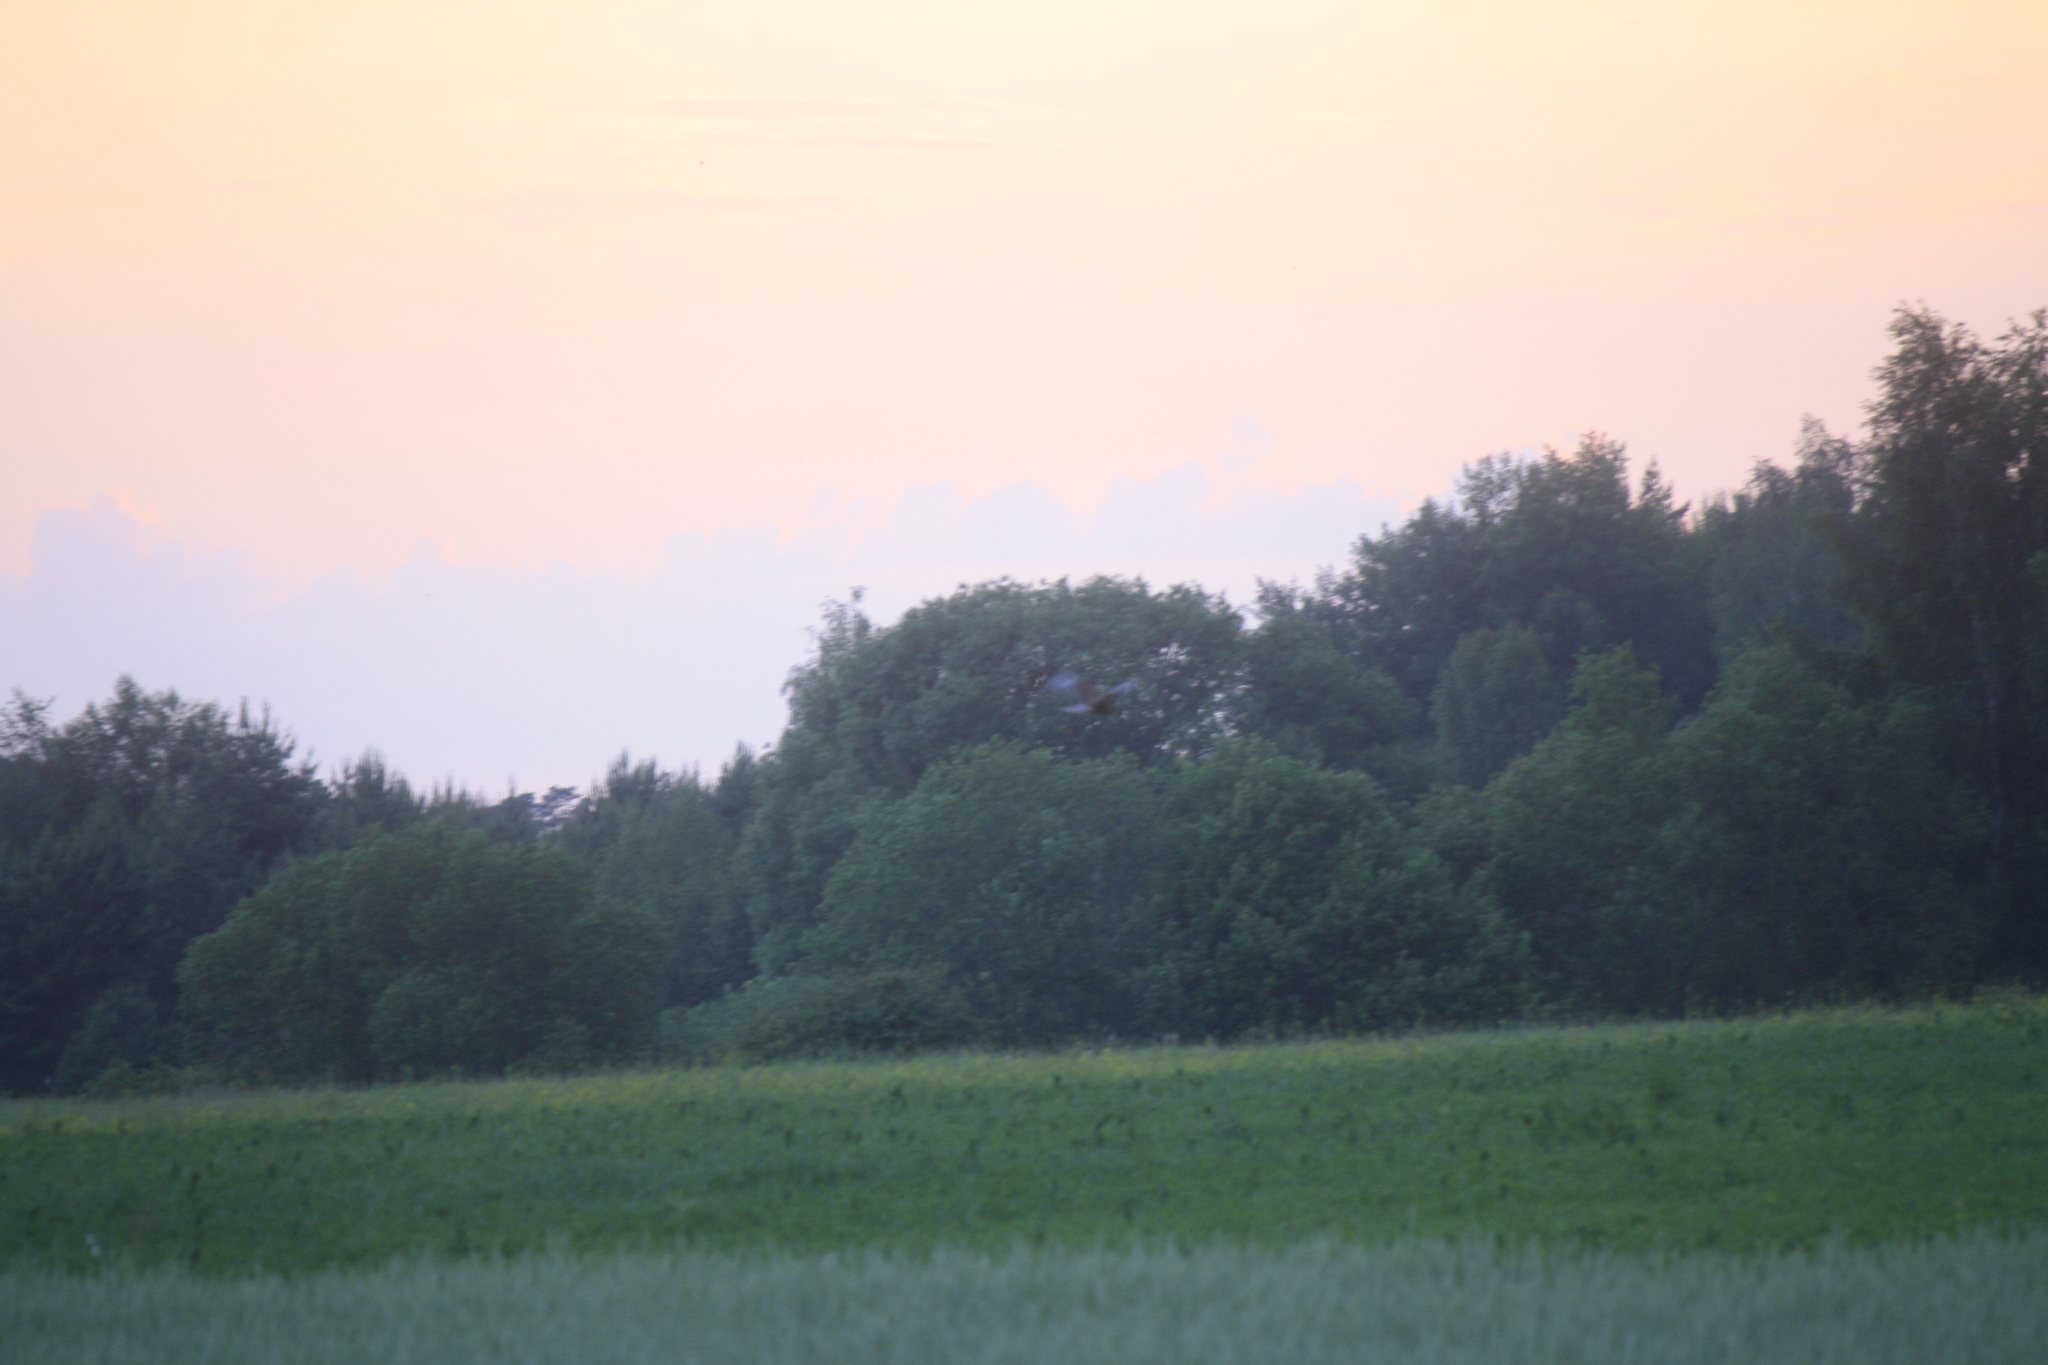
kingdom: Animalia
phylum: Chordata
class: Aves
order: Accipitriformes
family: Accipitridae
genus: Circus
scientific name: Circus aeruginosus
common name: Western marsh harrier
